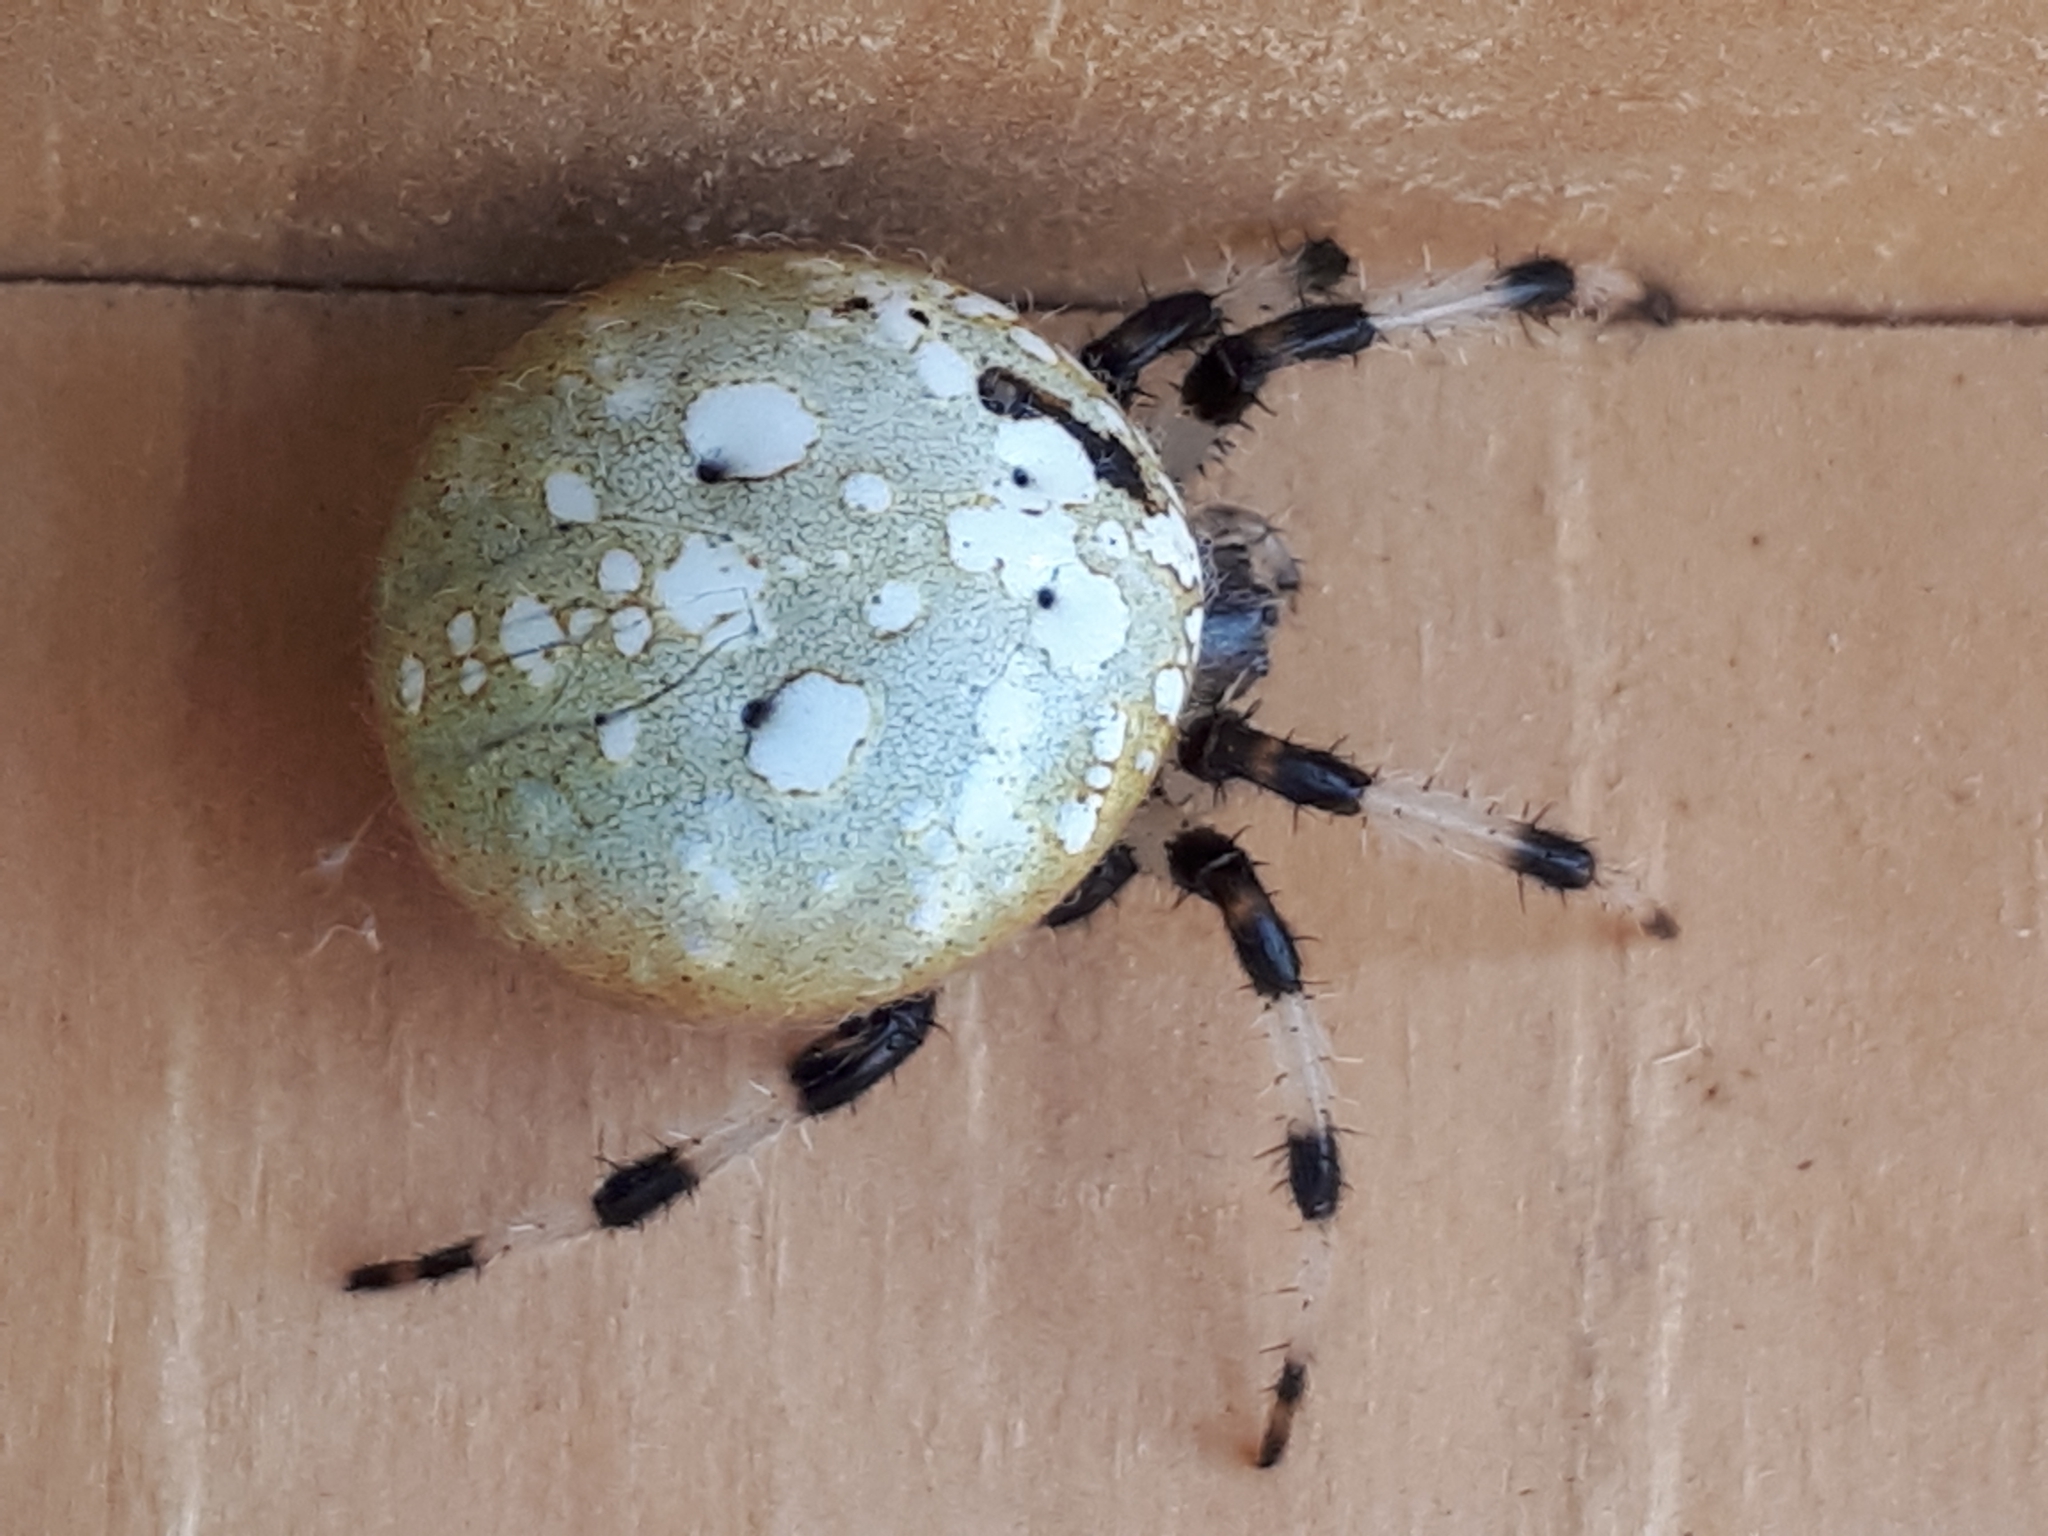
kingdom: Animalia
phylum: Arthropoda
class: Arachnida
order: Araneae
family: Araneidae
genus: Araneus
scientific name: Araneus trifolium
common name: Shamrock orbweaver
